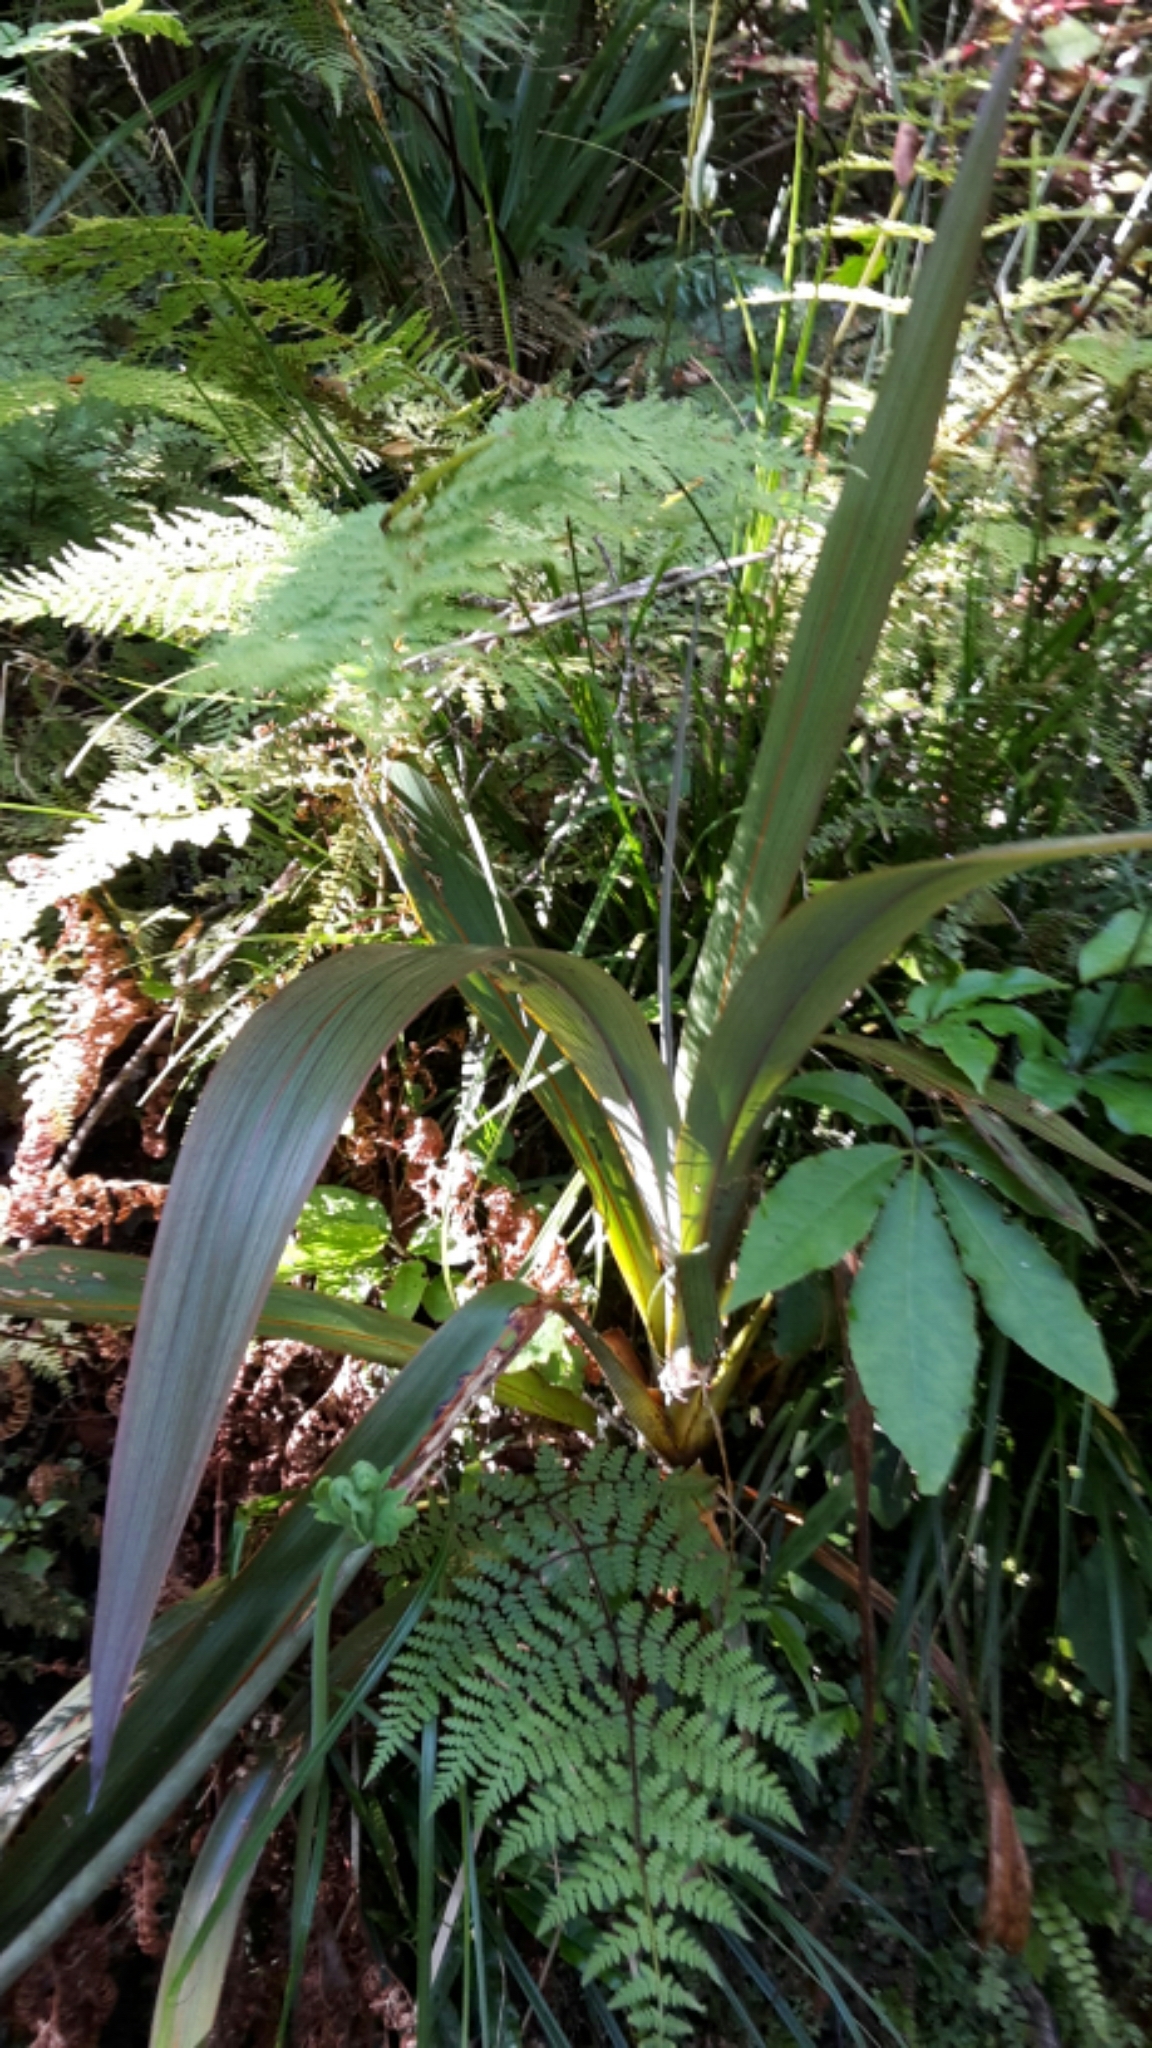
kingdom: Plantae
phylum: Tracheophyta
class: Liliopsida
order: Asparagales
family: Asparagaceae
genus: Cordyline
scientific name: Cordyline indivisa
